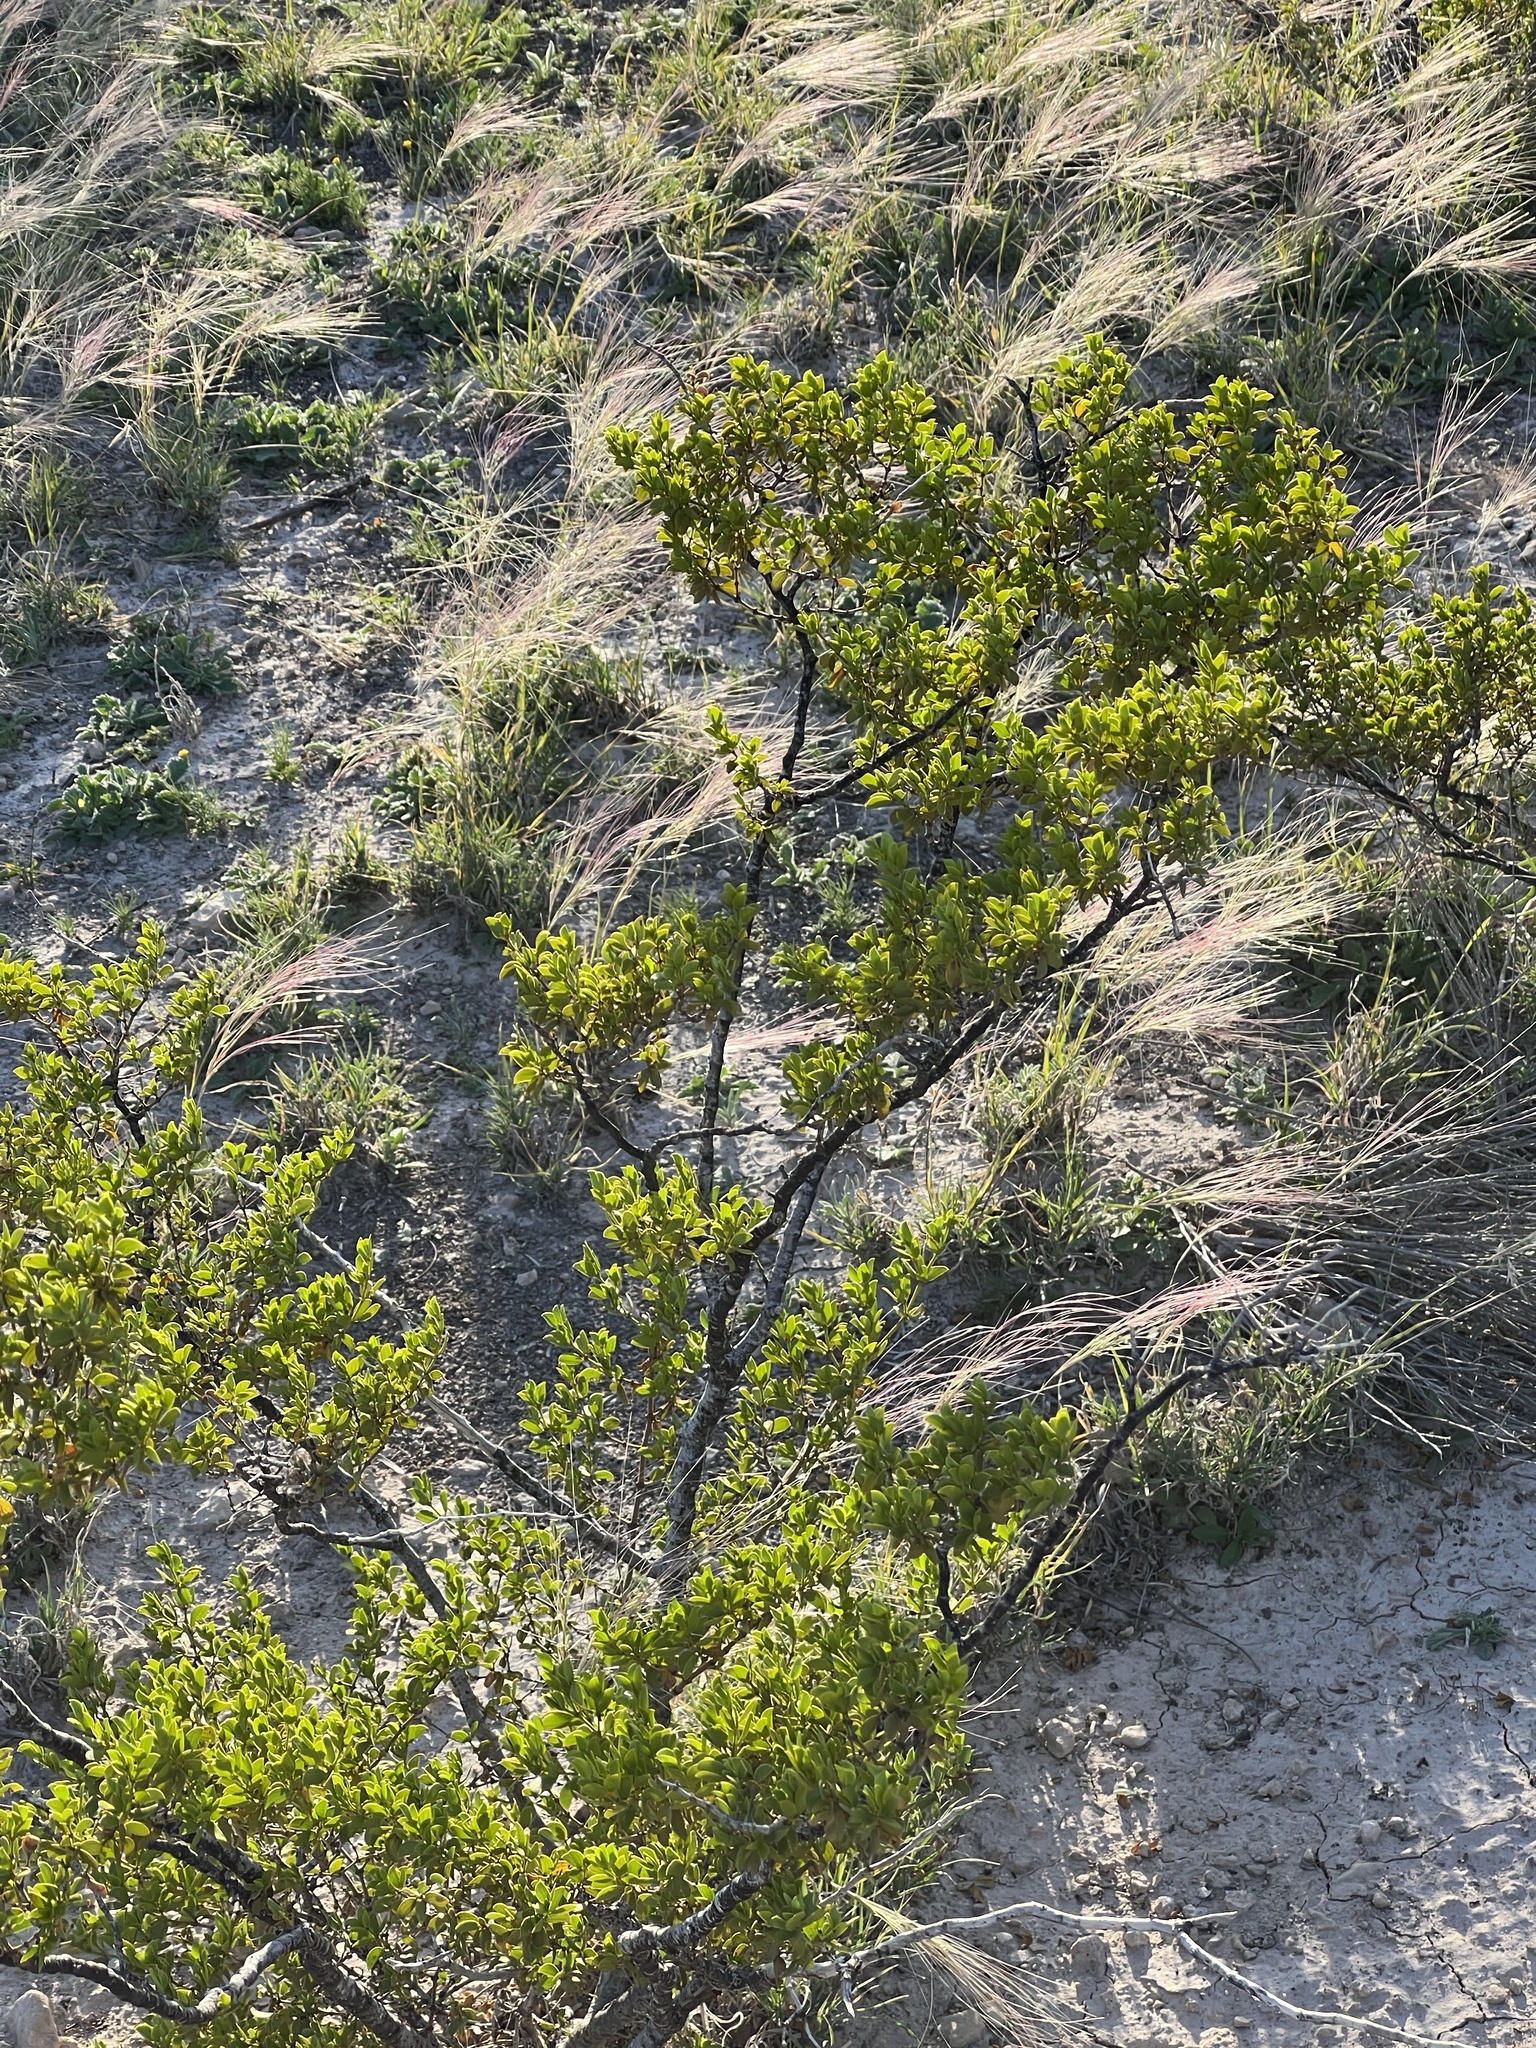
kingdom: Plantae
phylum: Tracheophyta
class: Magnoliopsida
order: Zygophyllales
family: Zygophyllaceae
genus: Larrea
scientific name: Larrea tridentata
